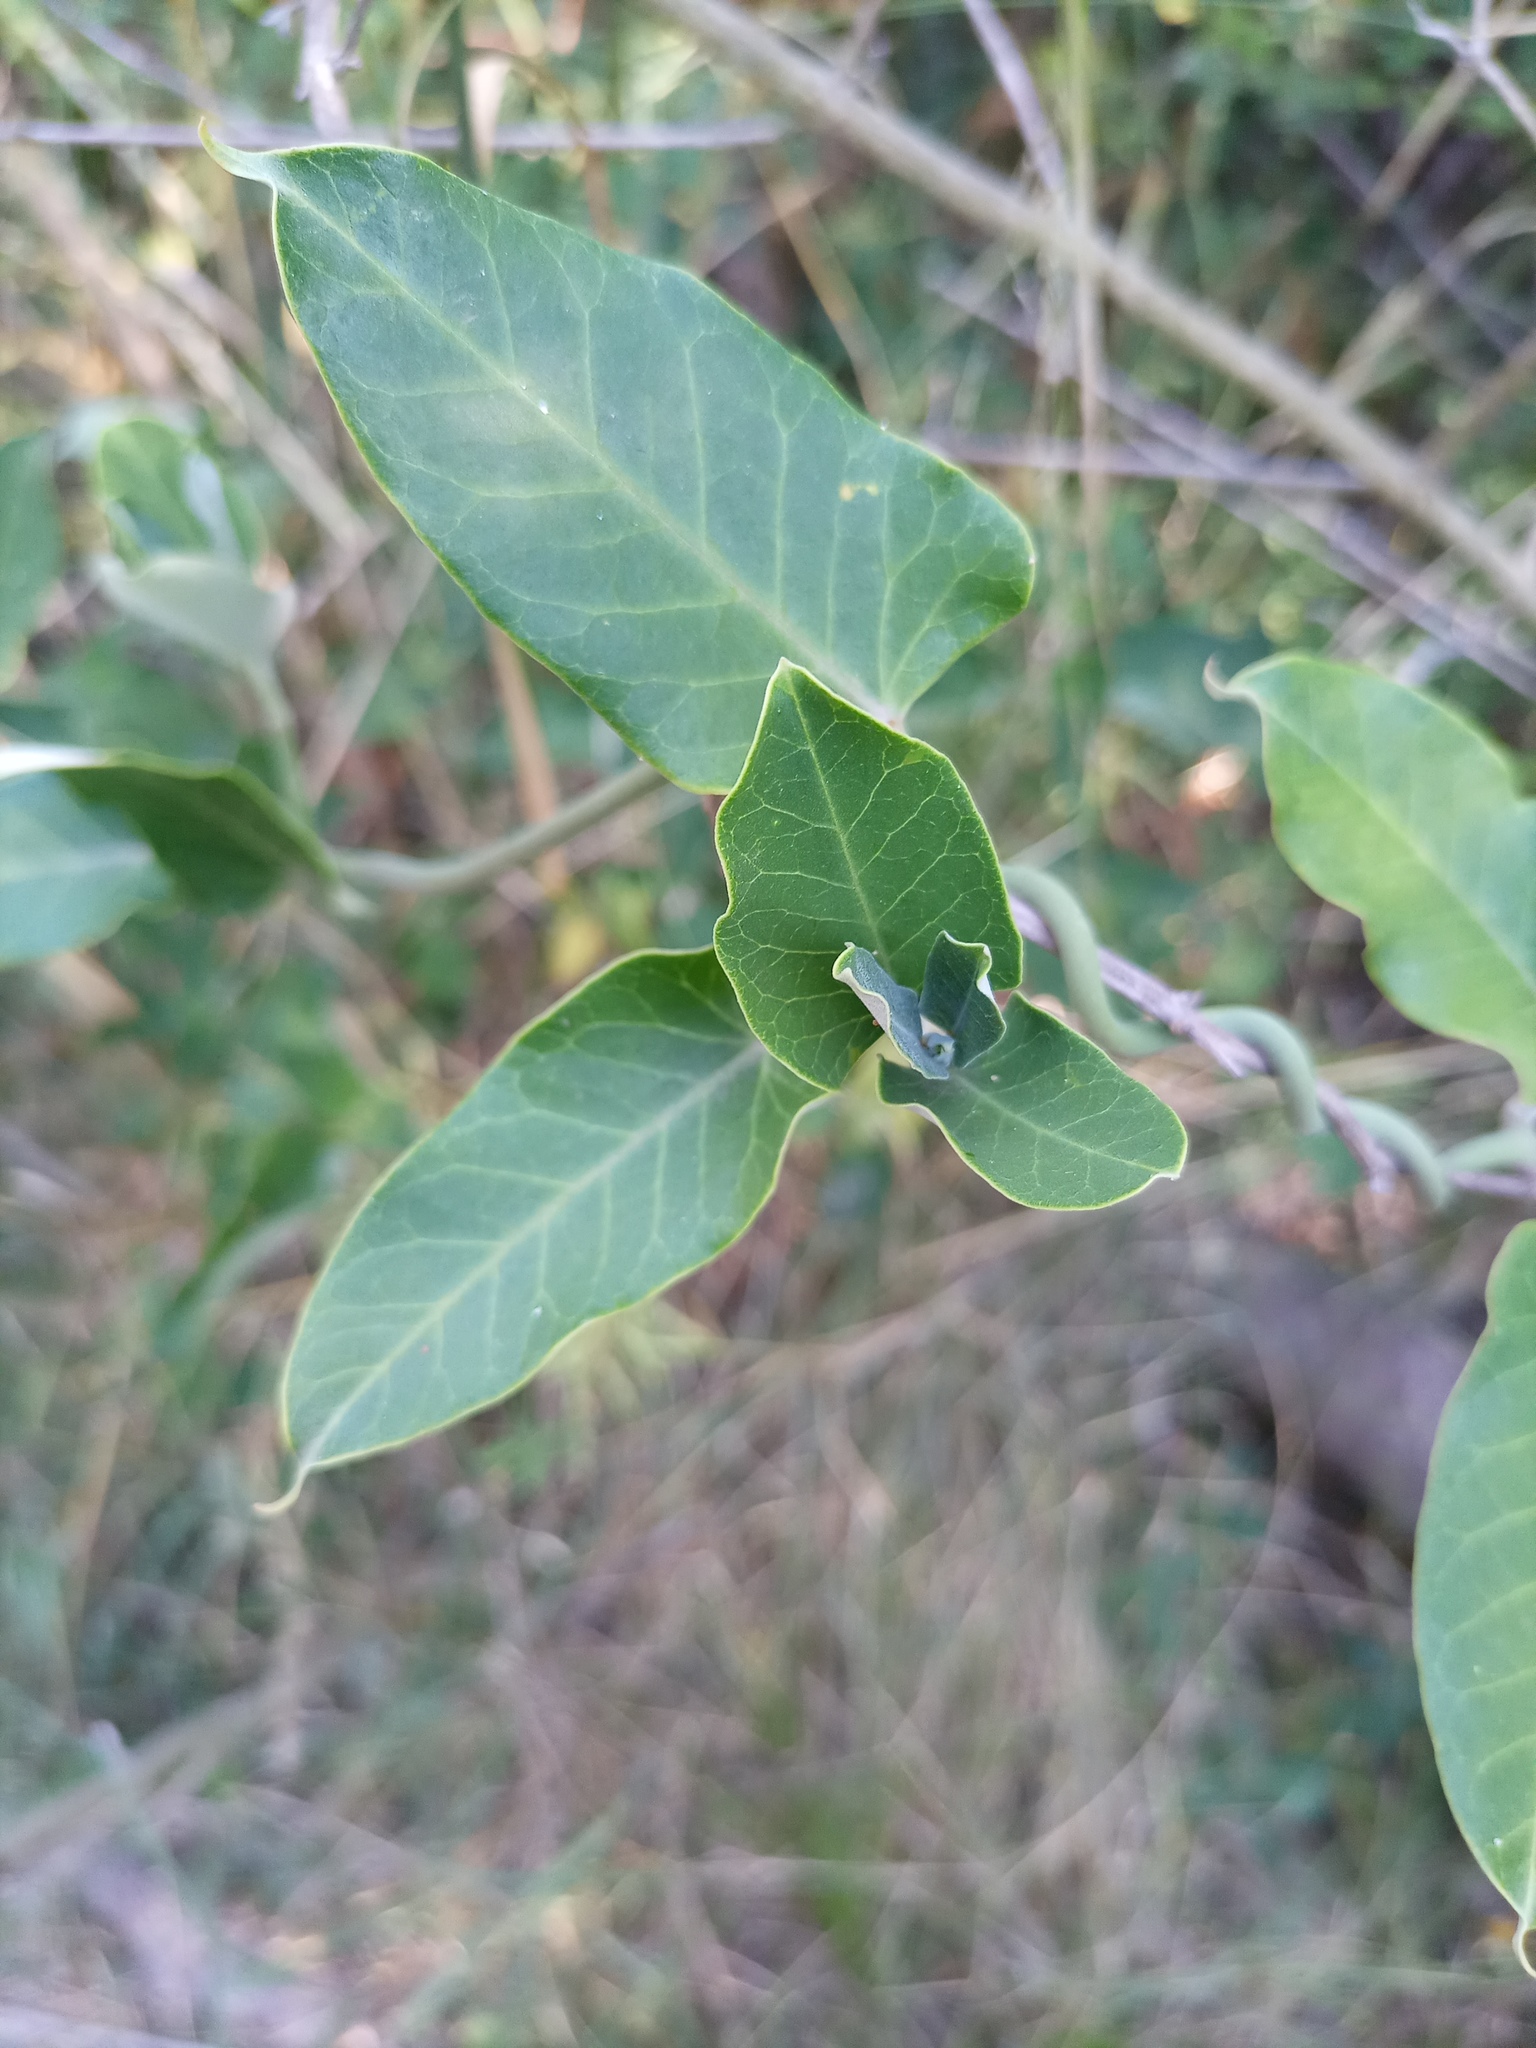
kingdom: Plantae
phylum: Tracheophyta
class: Magnoliopsida
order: Gentianales
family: Apocynaceae
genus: Araujia
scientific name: Araujia sericifera
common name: White bladderflower
